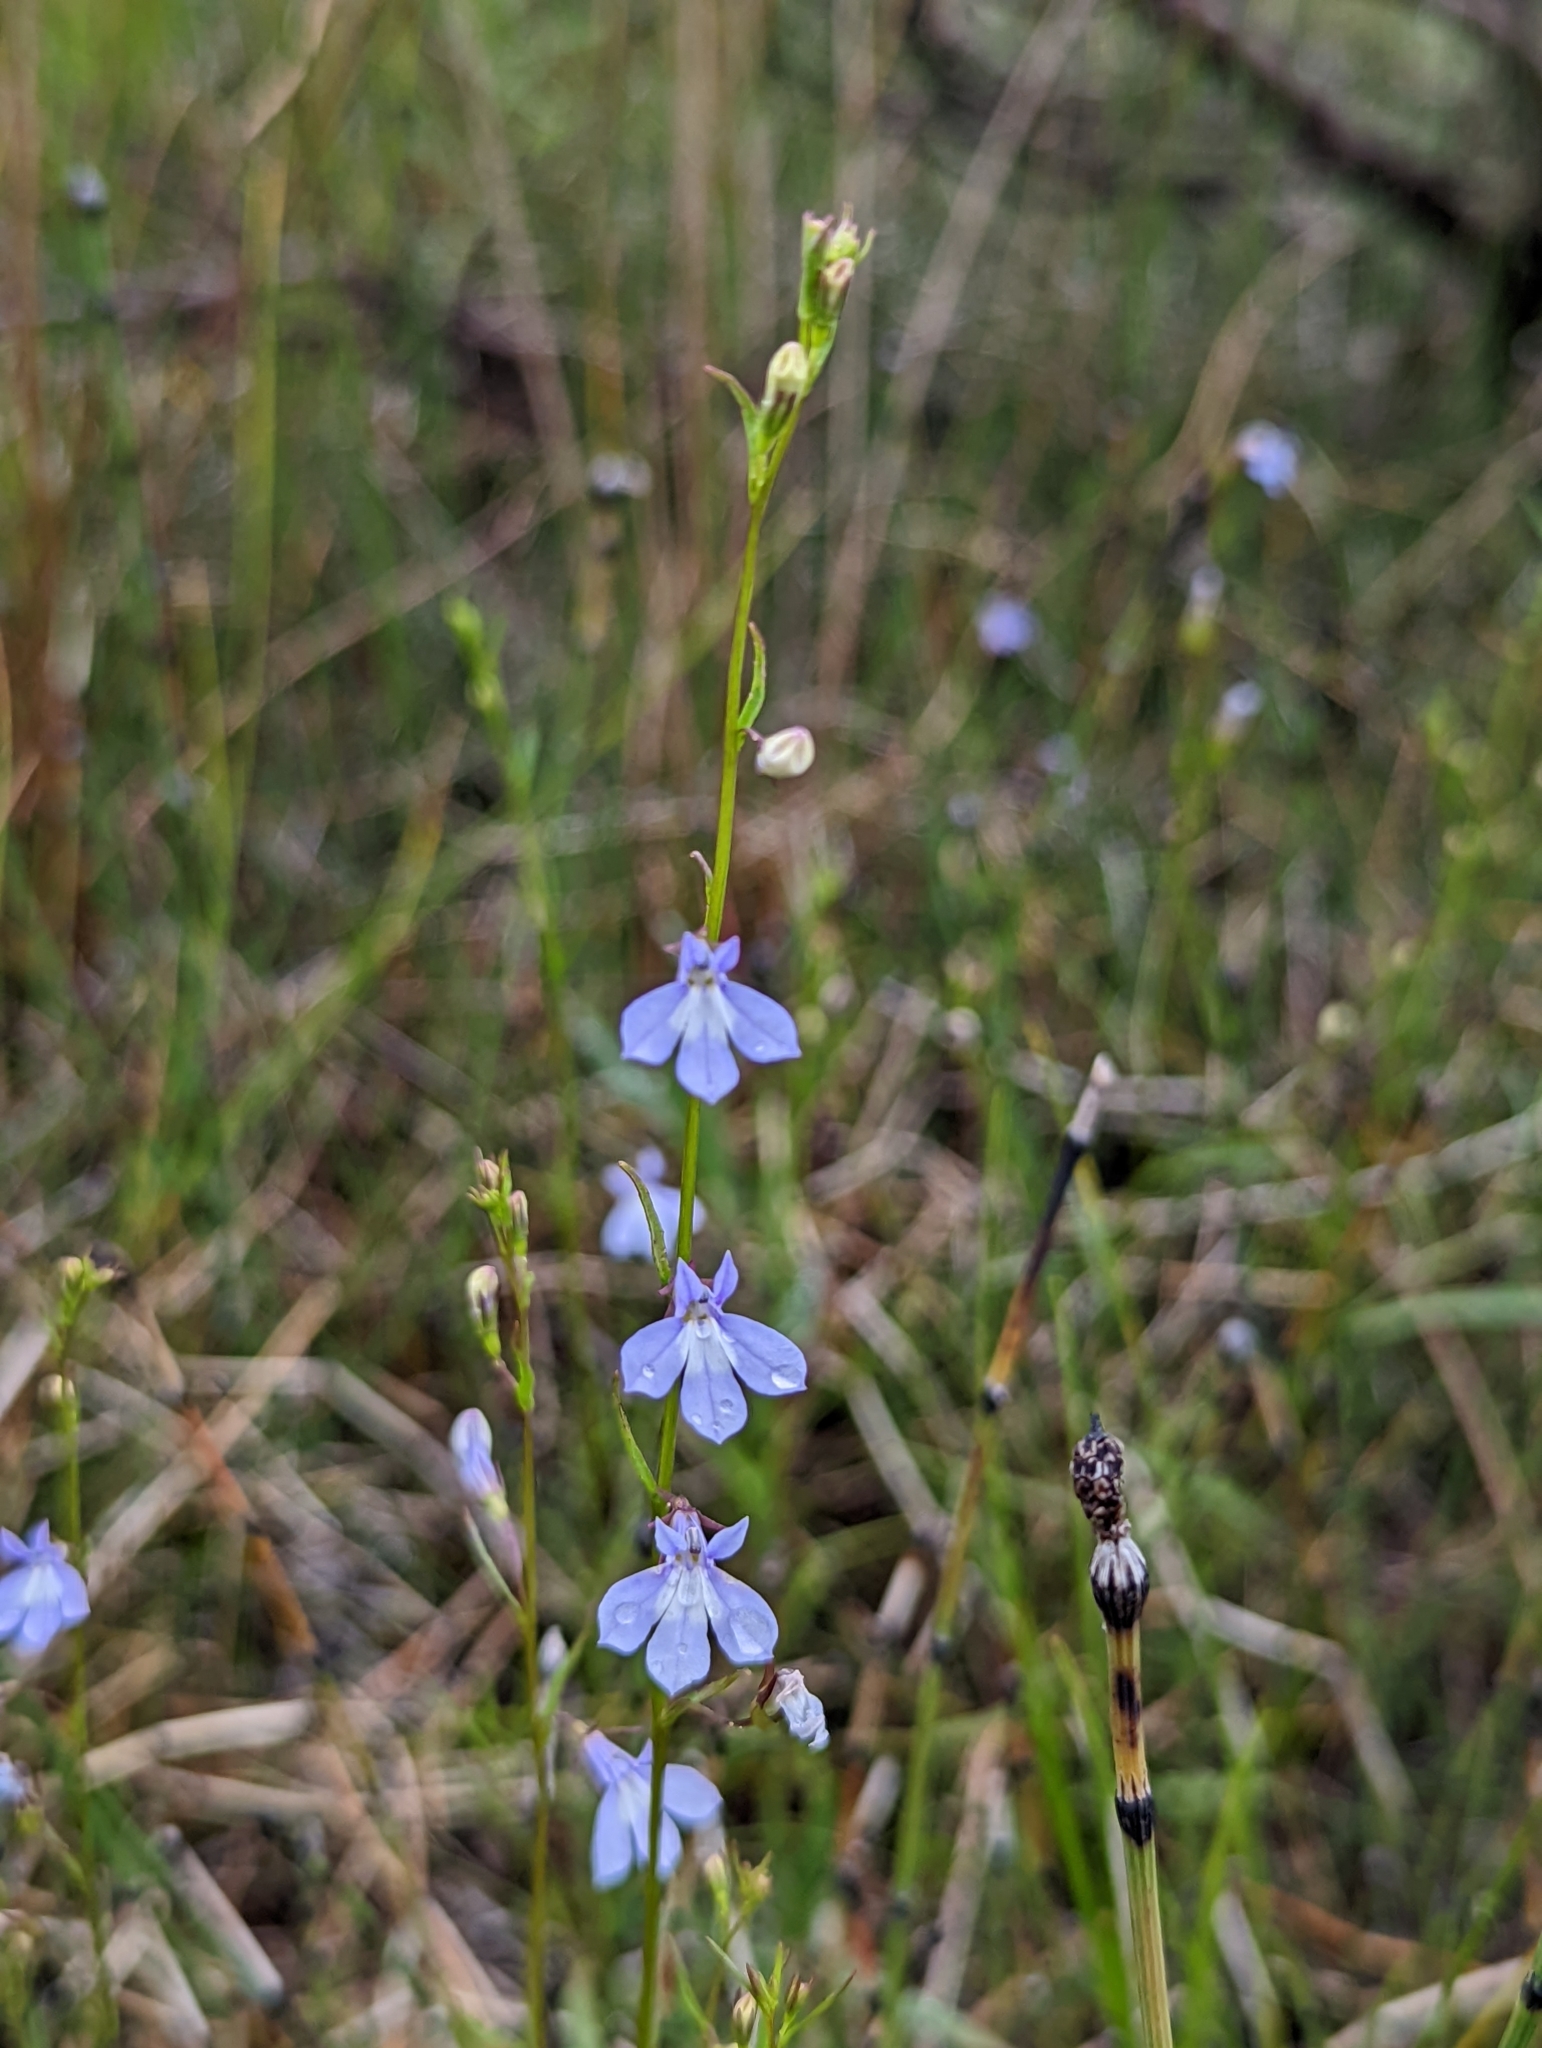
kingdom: Plantae
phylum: Tracheophyta
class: Magnoliopsida
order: Asterales
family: Campanulaceae
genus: Lobelia
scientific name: Lobelia kalmii
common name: Kalm's lobelia
